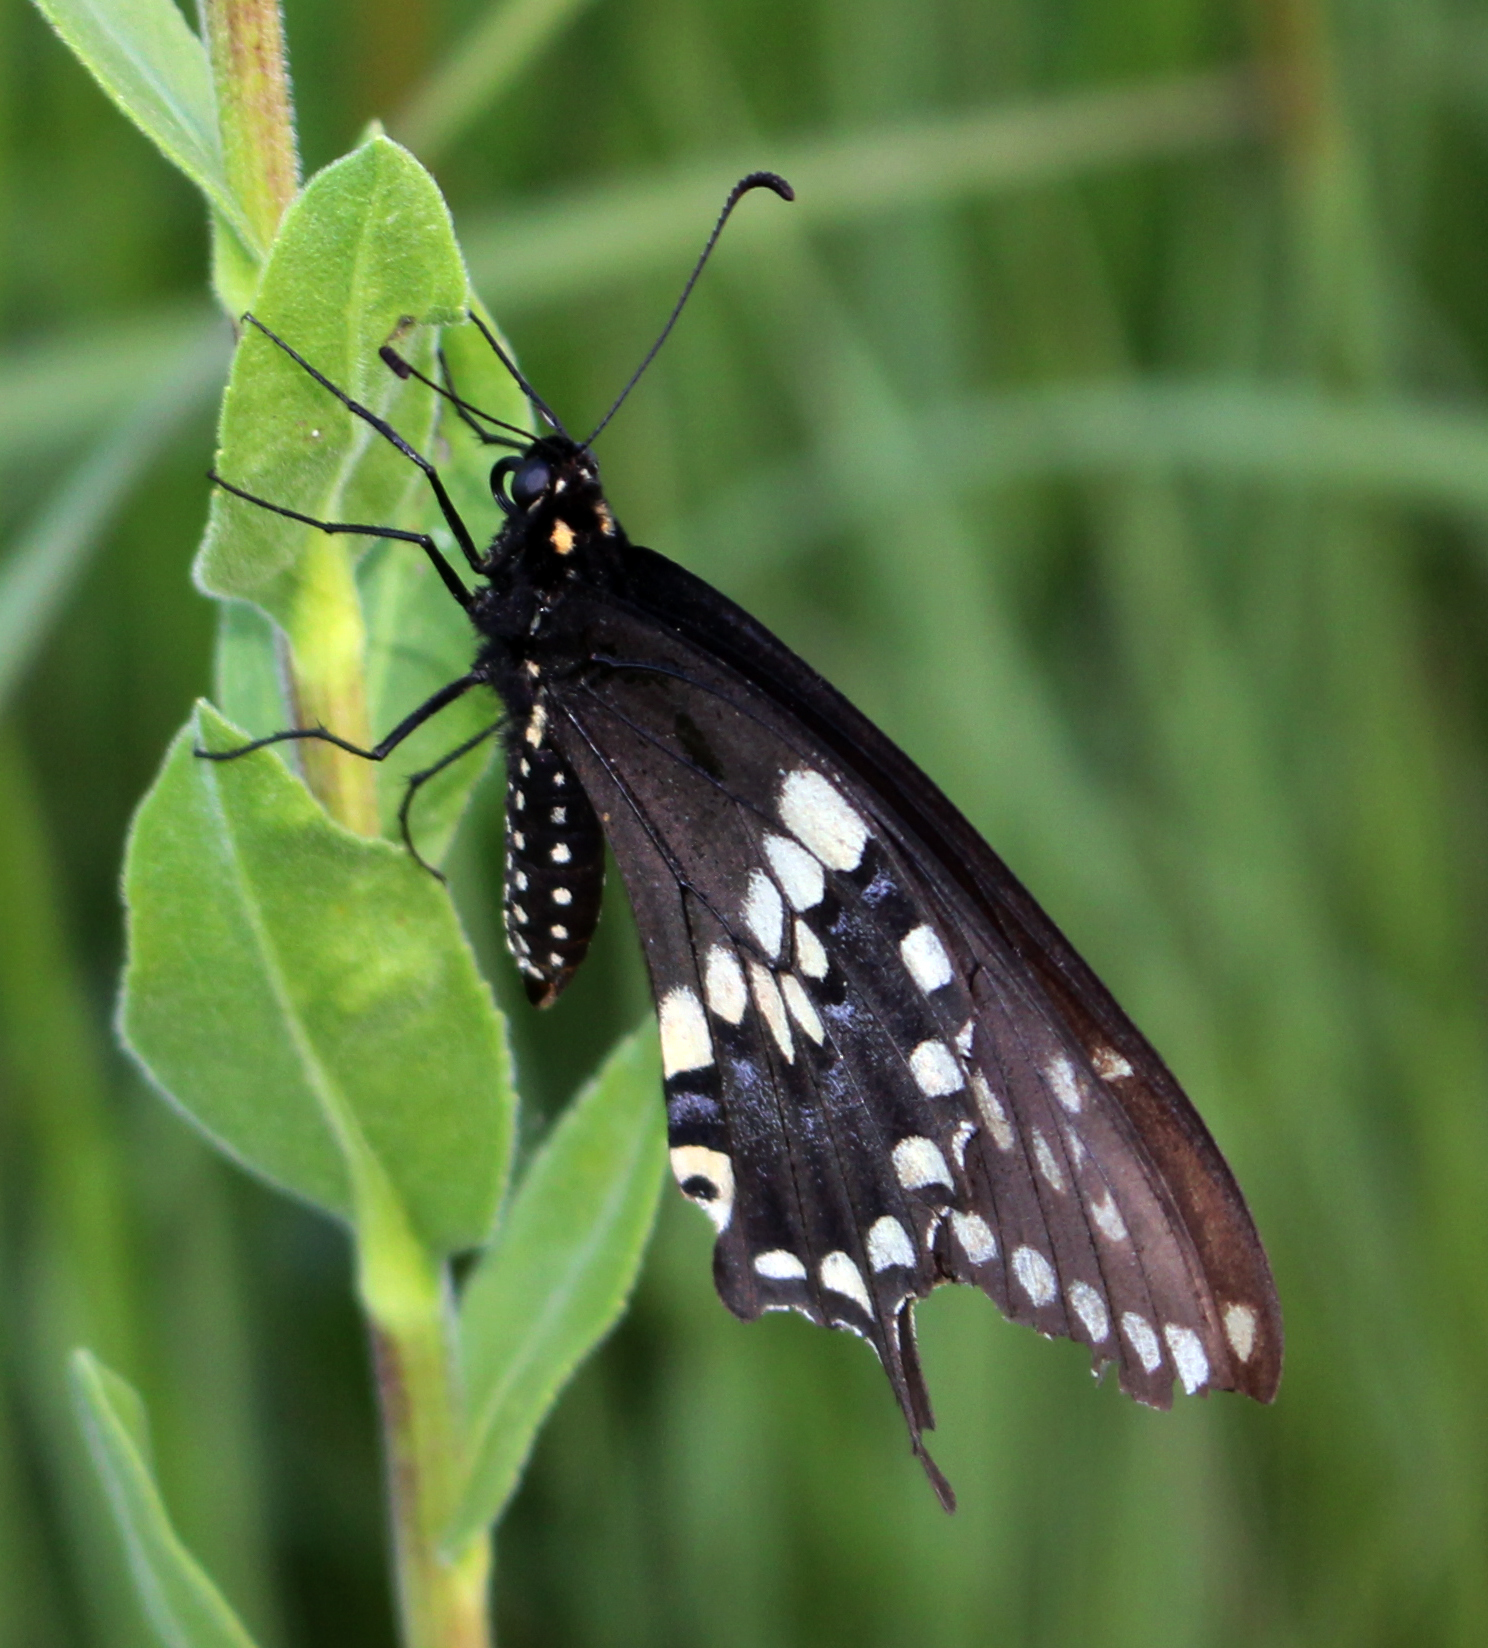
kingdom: Animalia
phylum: Arthropoda
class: Insecta
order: Lepidoptera
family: Papilionidae
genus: Papilio
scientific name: Papilio polyxenes
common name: Black swallowtail
